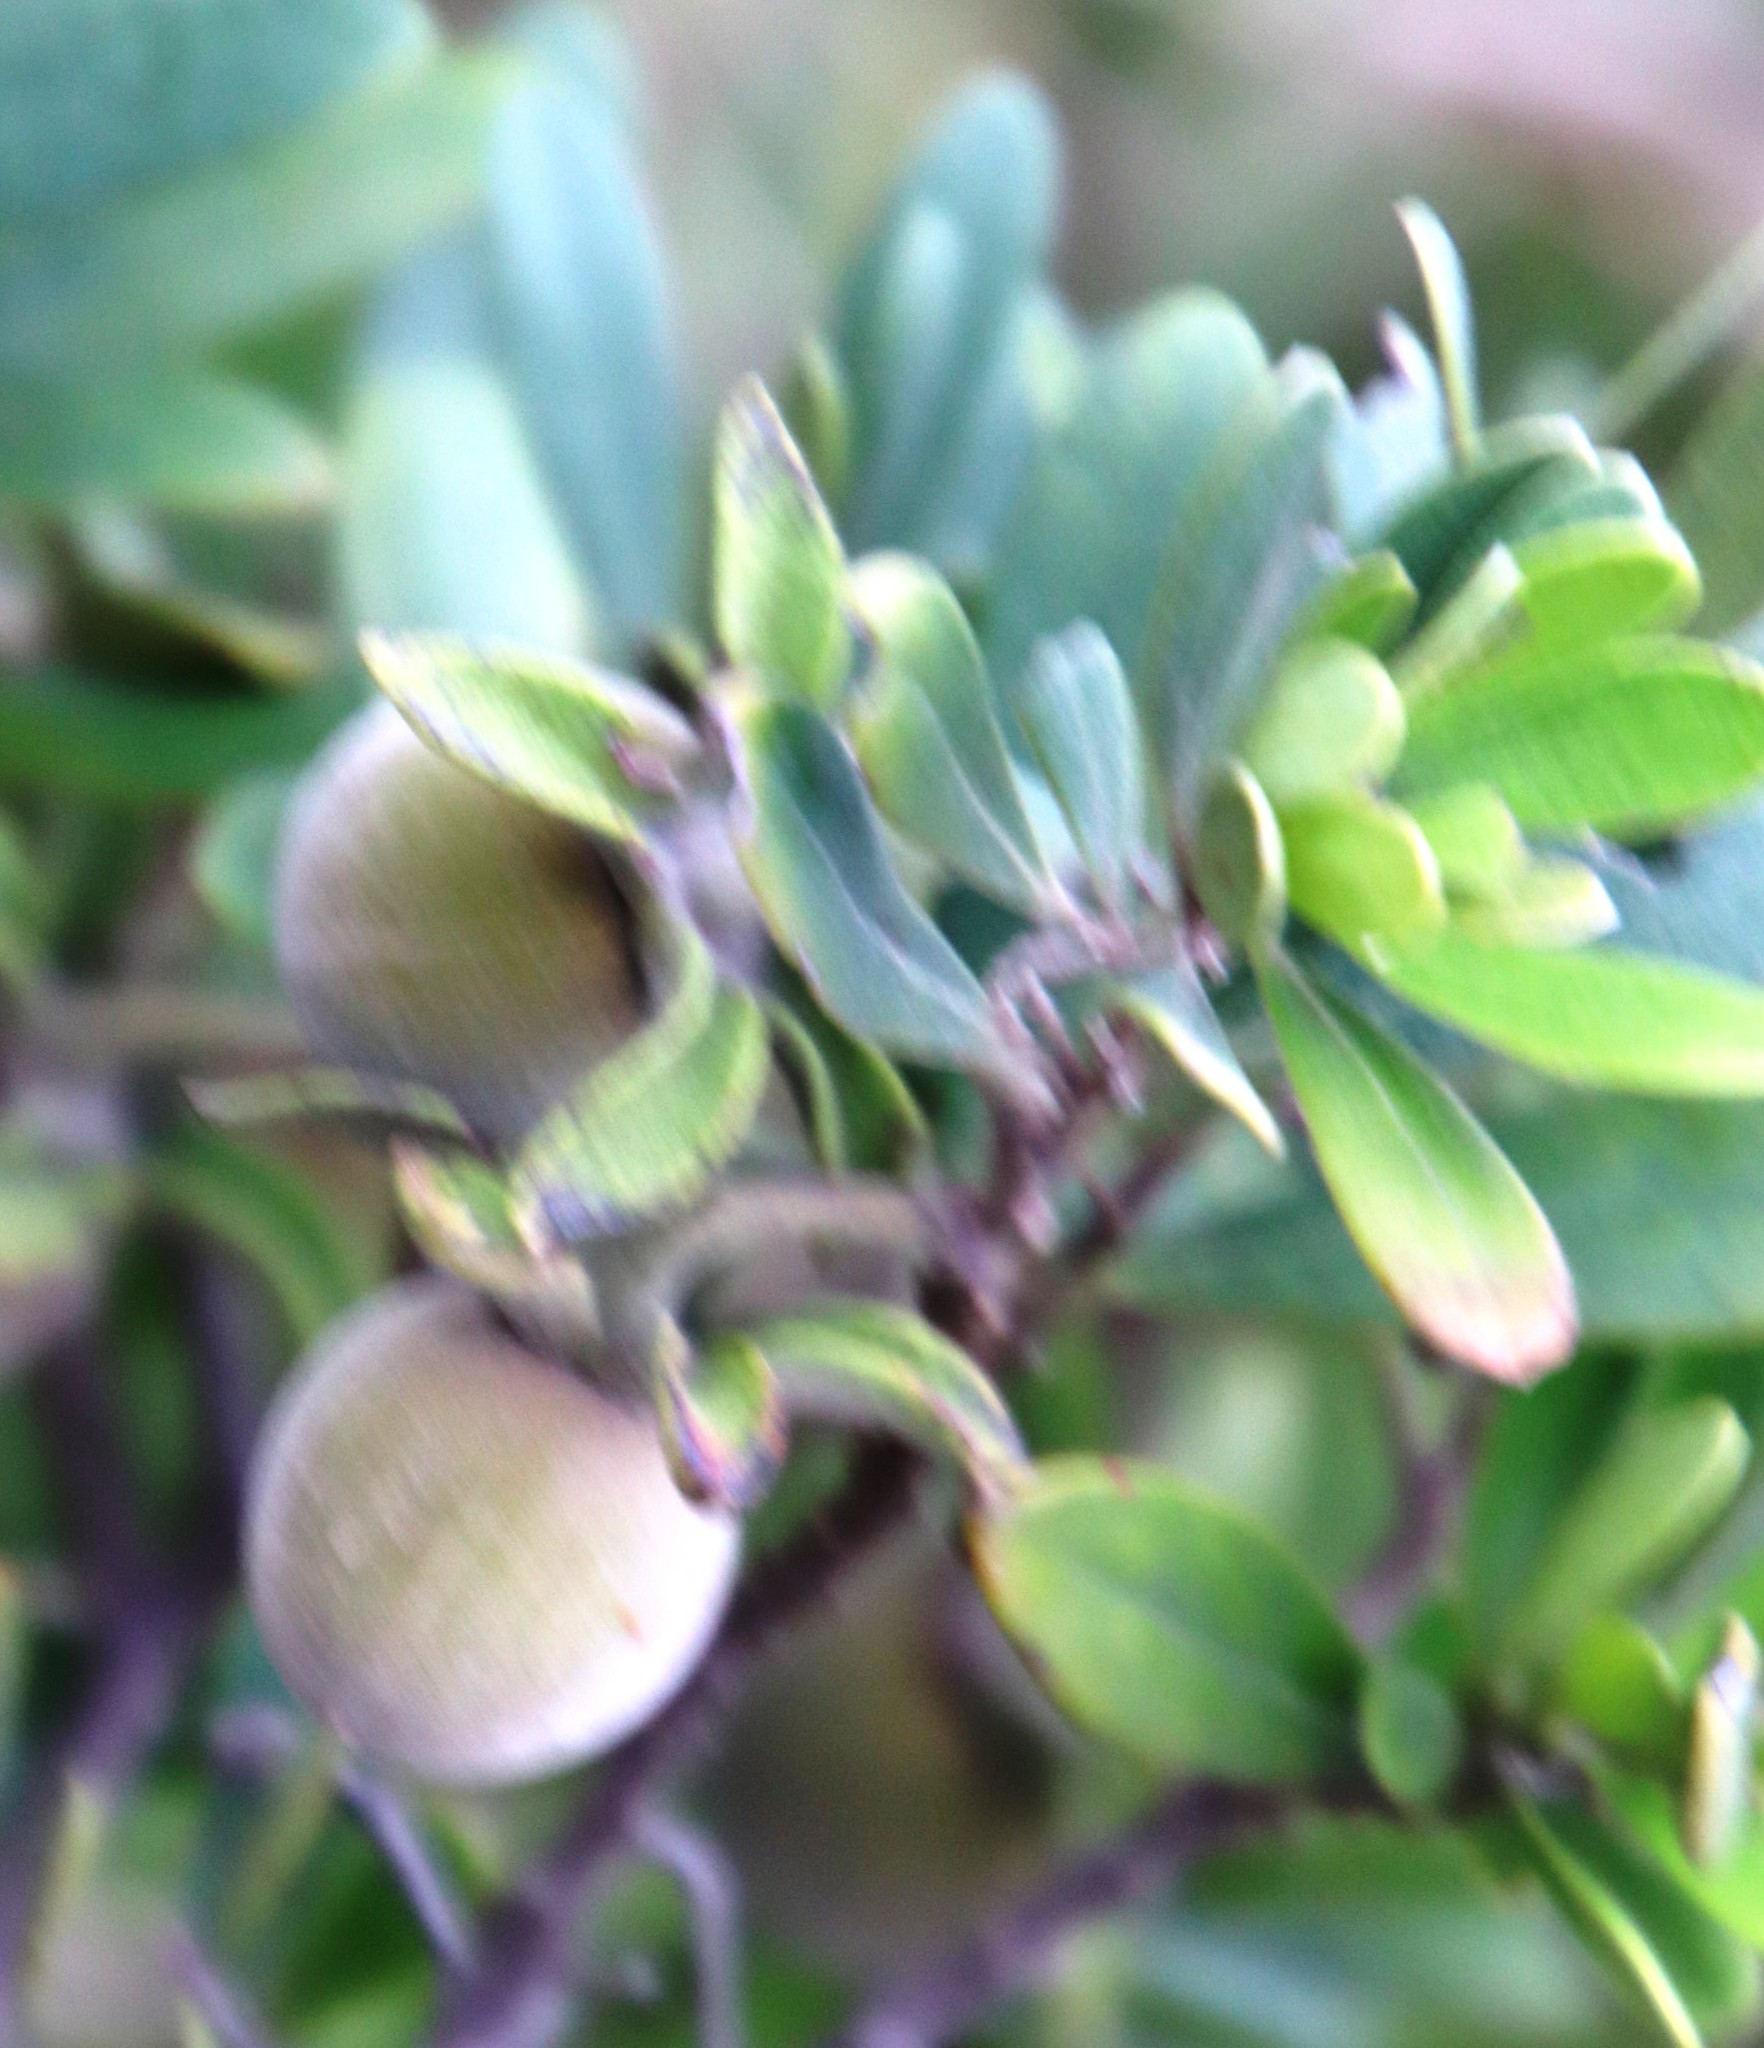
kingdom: Plantae
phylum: Tracheophyta
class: Magnoliopsida
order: Ericales
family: Ebenaceae
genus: Diospyros
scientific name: Diospyros pallens
